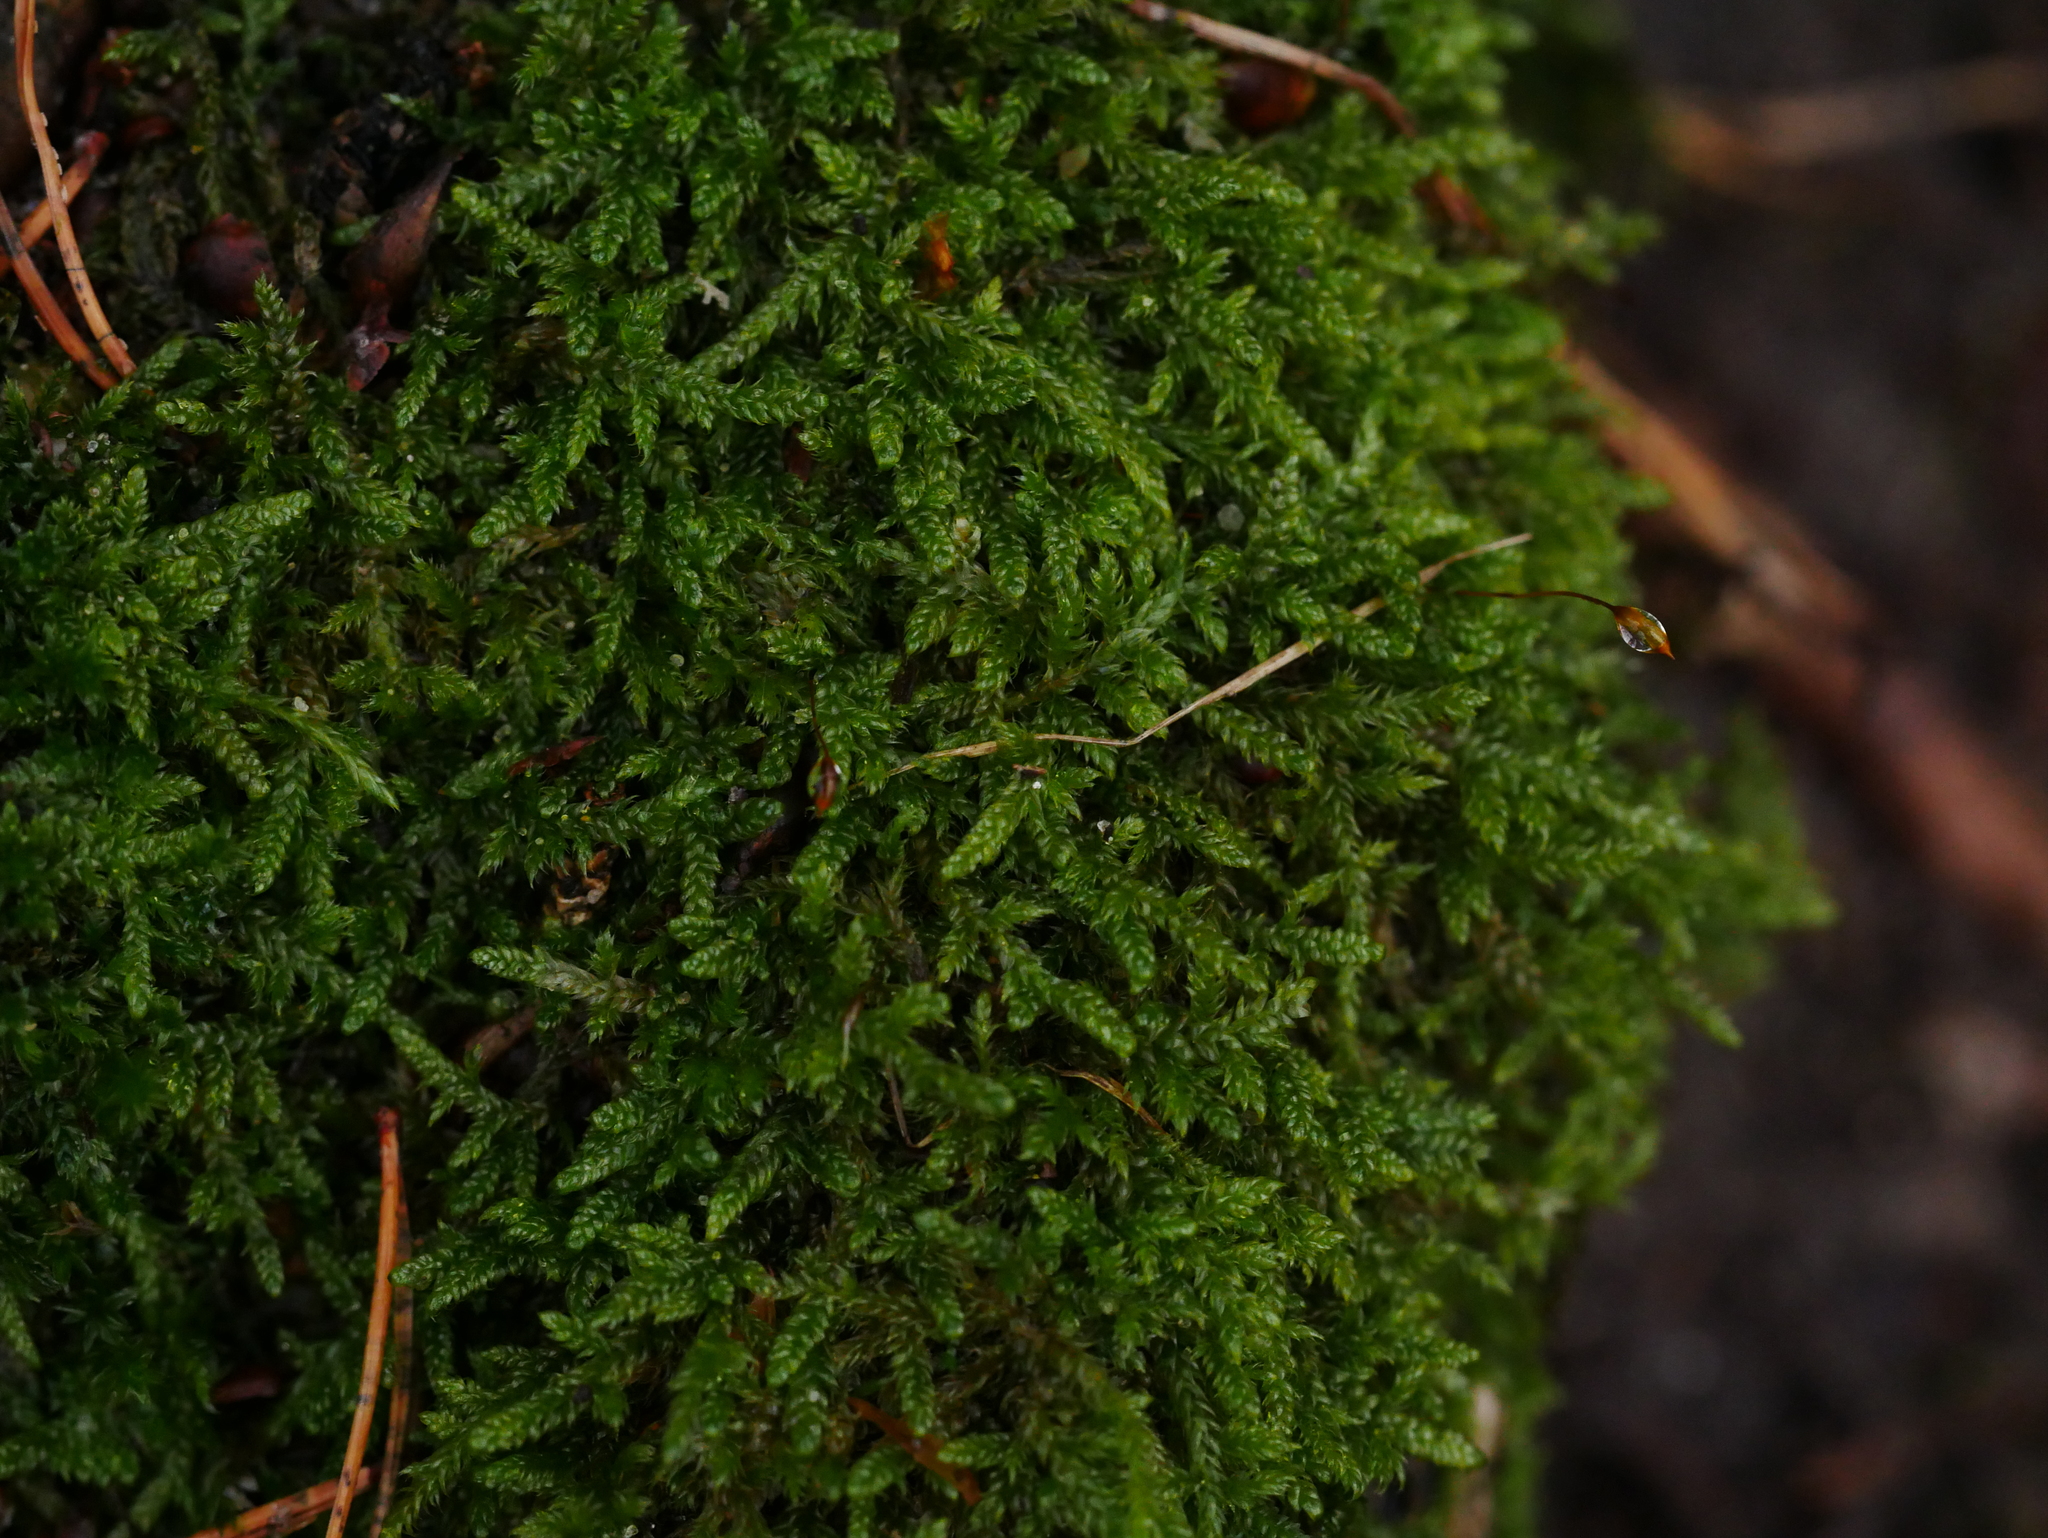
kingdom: Plantae
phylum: Bryophyta
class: Bryopsida
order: Hypnales
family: Hypnaceae
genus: Hypnum
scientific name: Hypnum cupressiforme
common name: Cypress-leaved plait-moss
